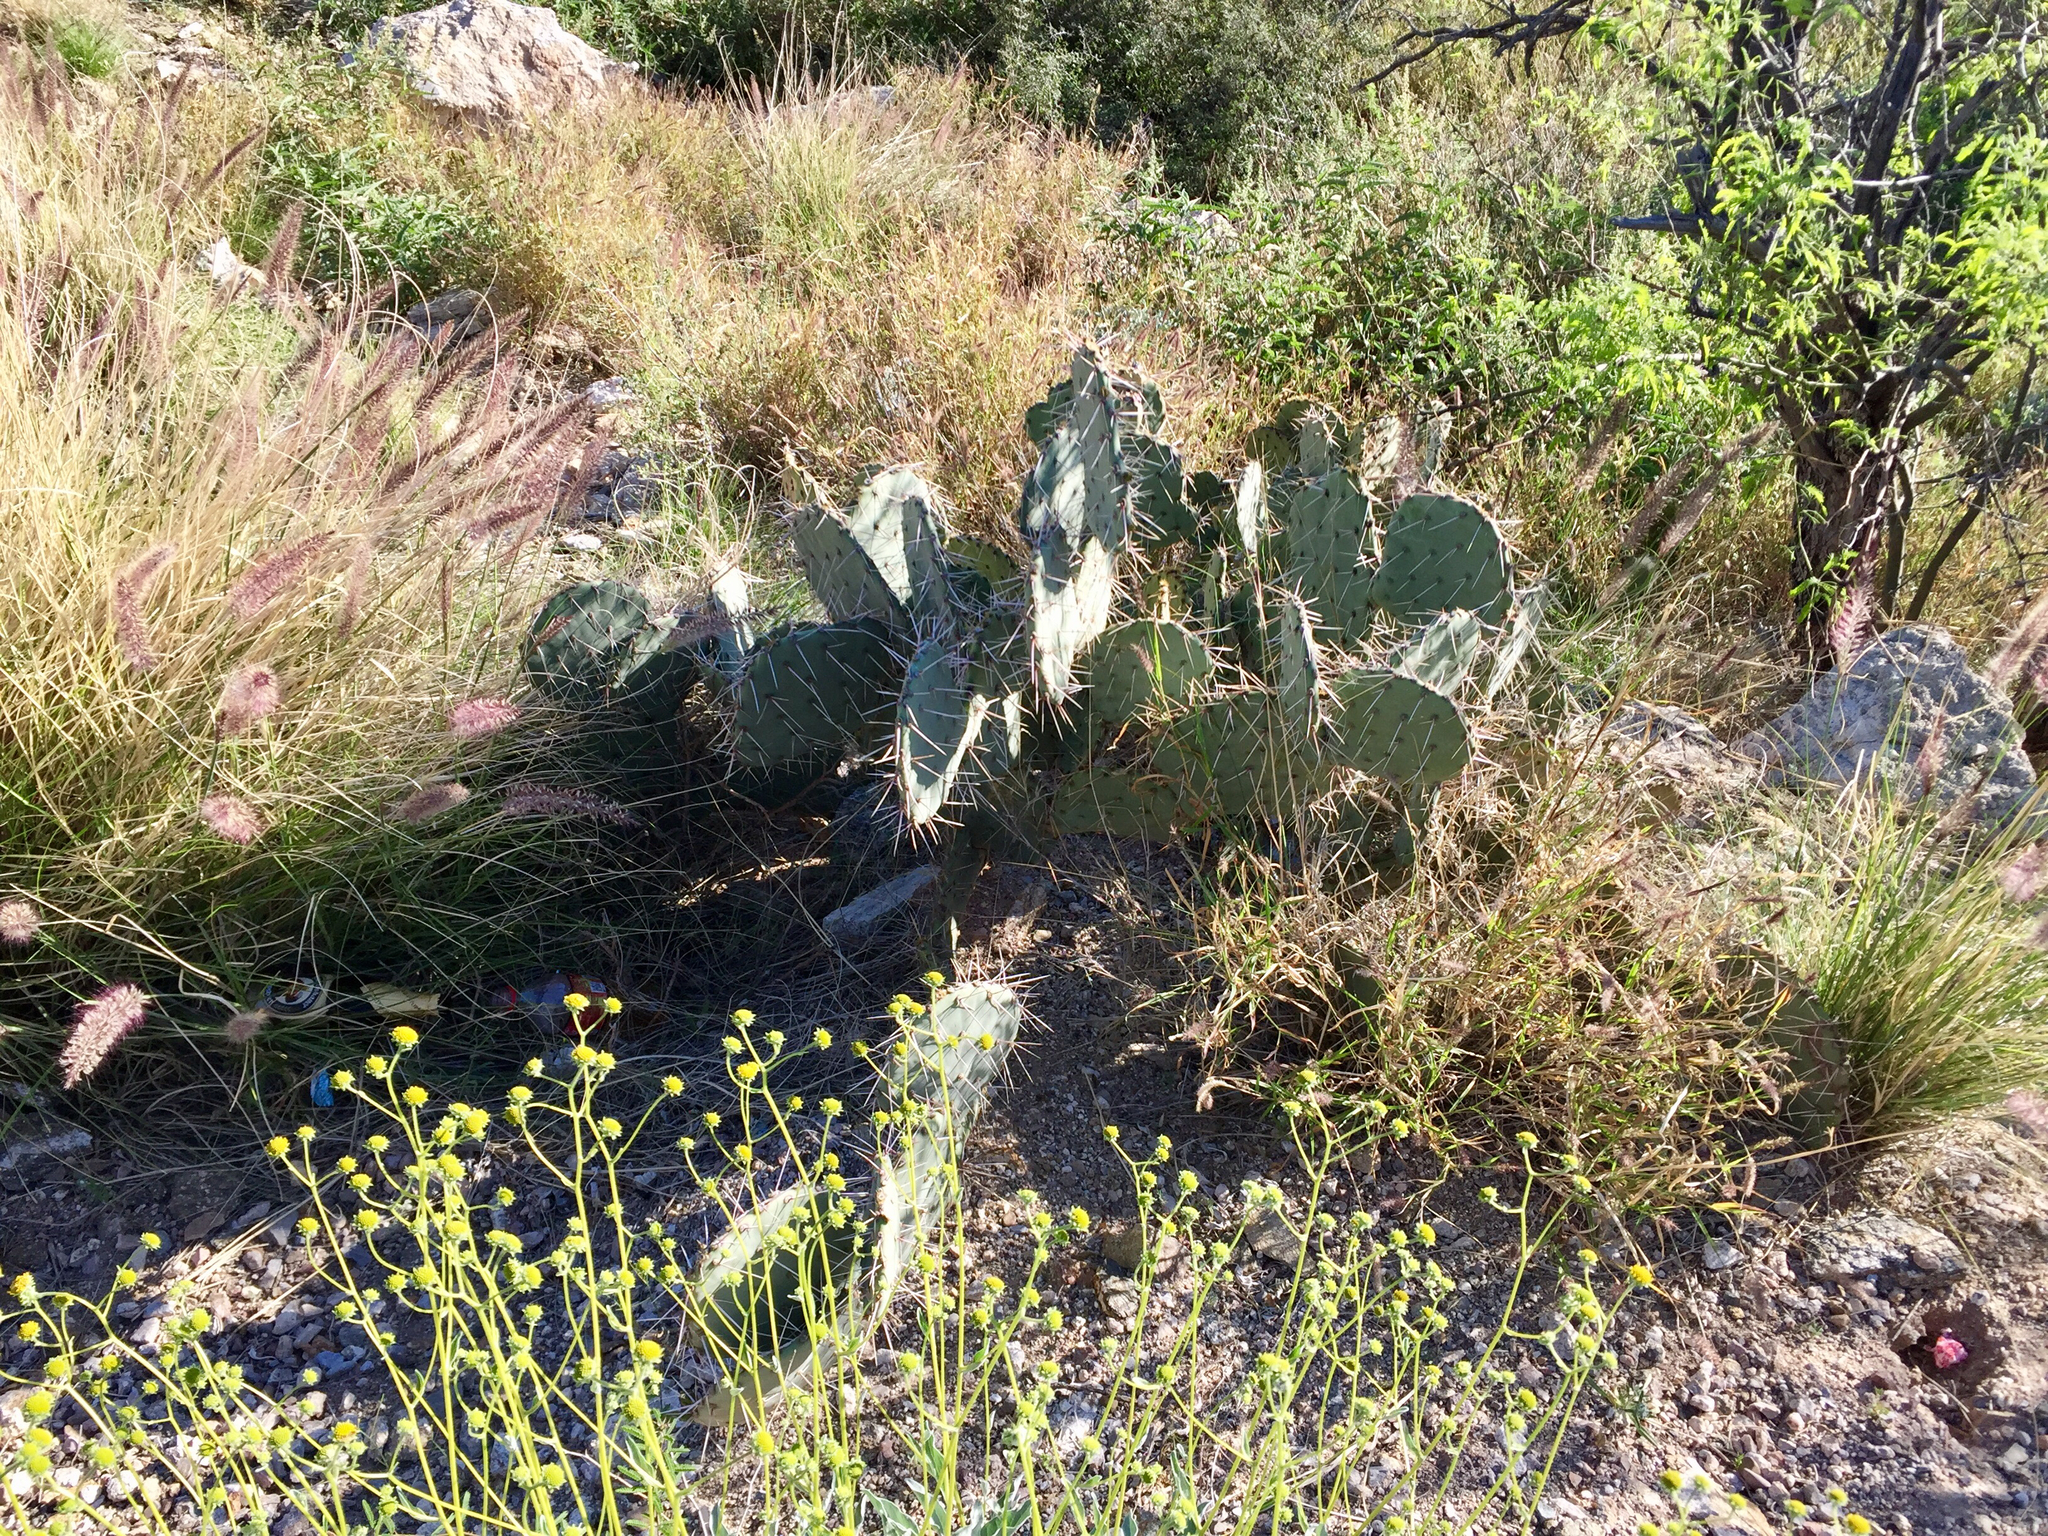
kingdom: Plantae
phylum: Tracheophyta
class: Magnoliopsida
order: Caryophyllales
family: Cactaceae
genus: Opuntia
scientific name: Opuntia engelmannii
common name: Cactus-apple
